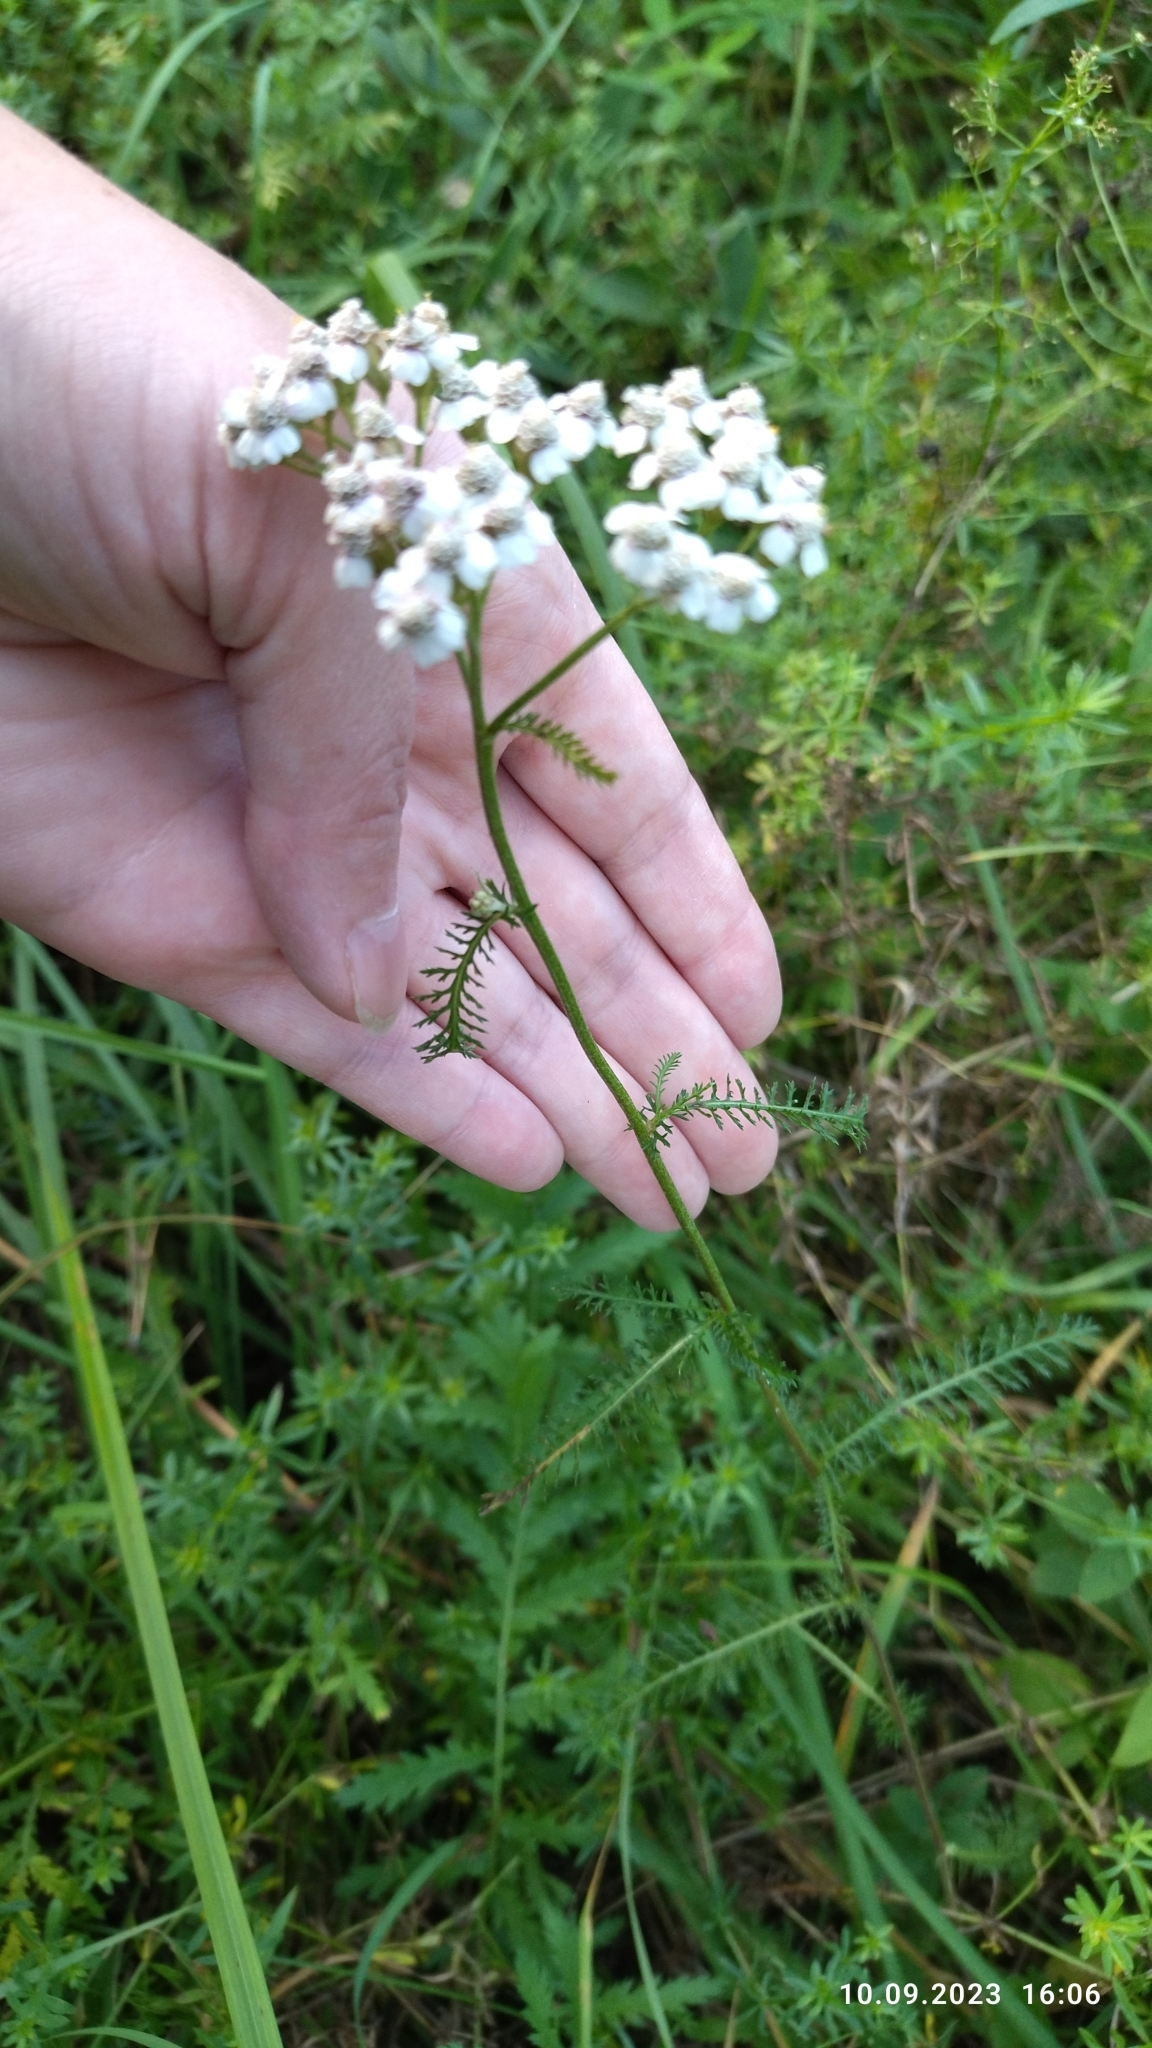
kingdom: Plantae
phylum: Tracheophyta
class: Magnoliopsida
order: Asterales
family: Asteraceae
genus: Achillea
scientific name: Achillea millefolium
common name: Yarrow
